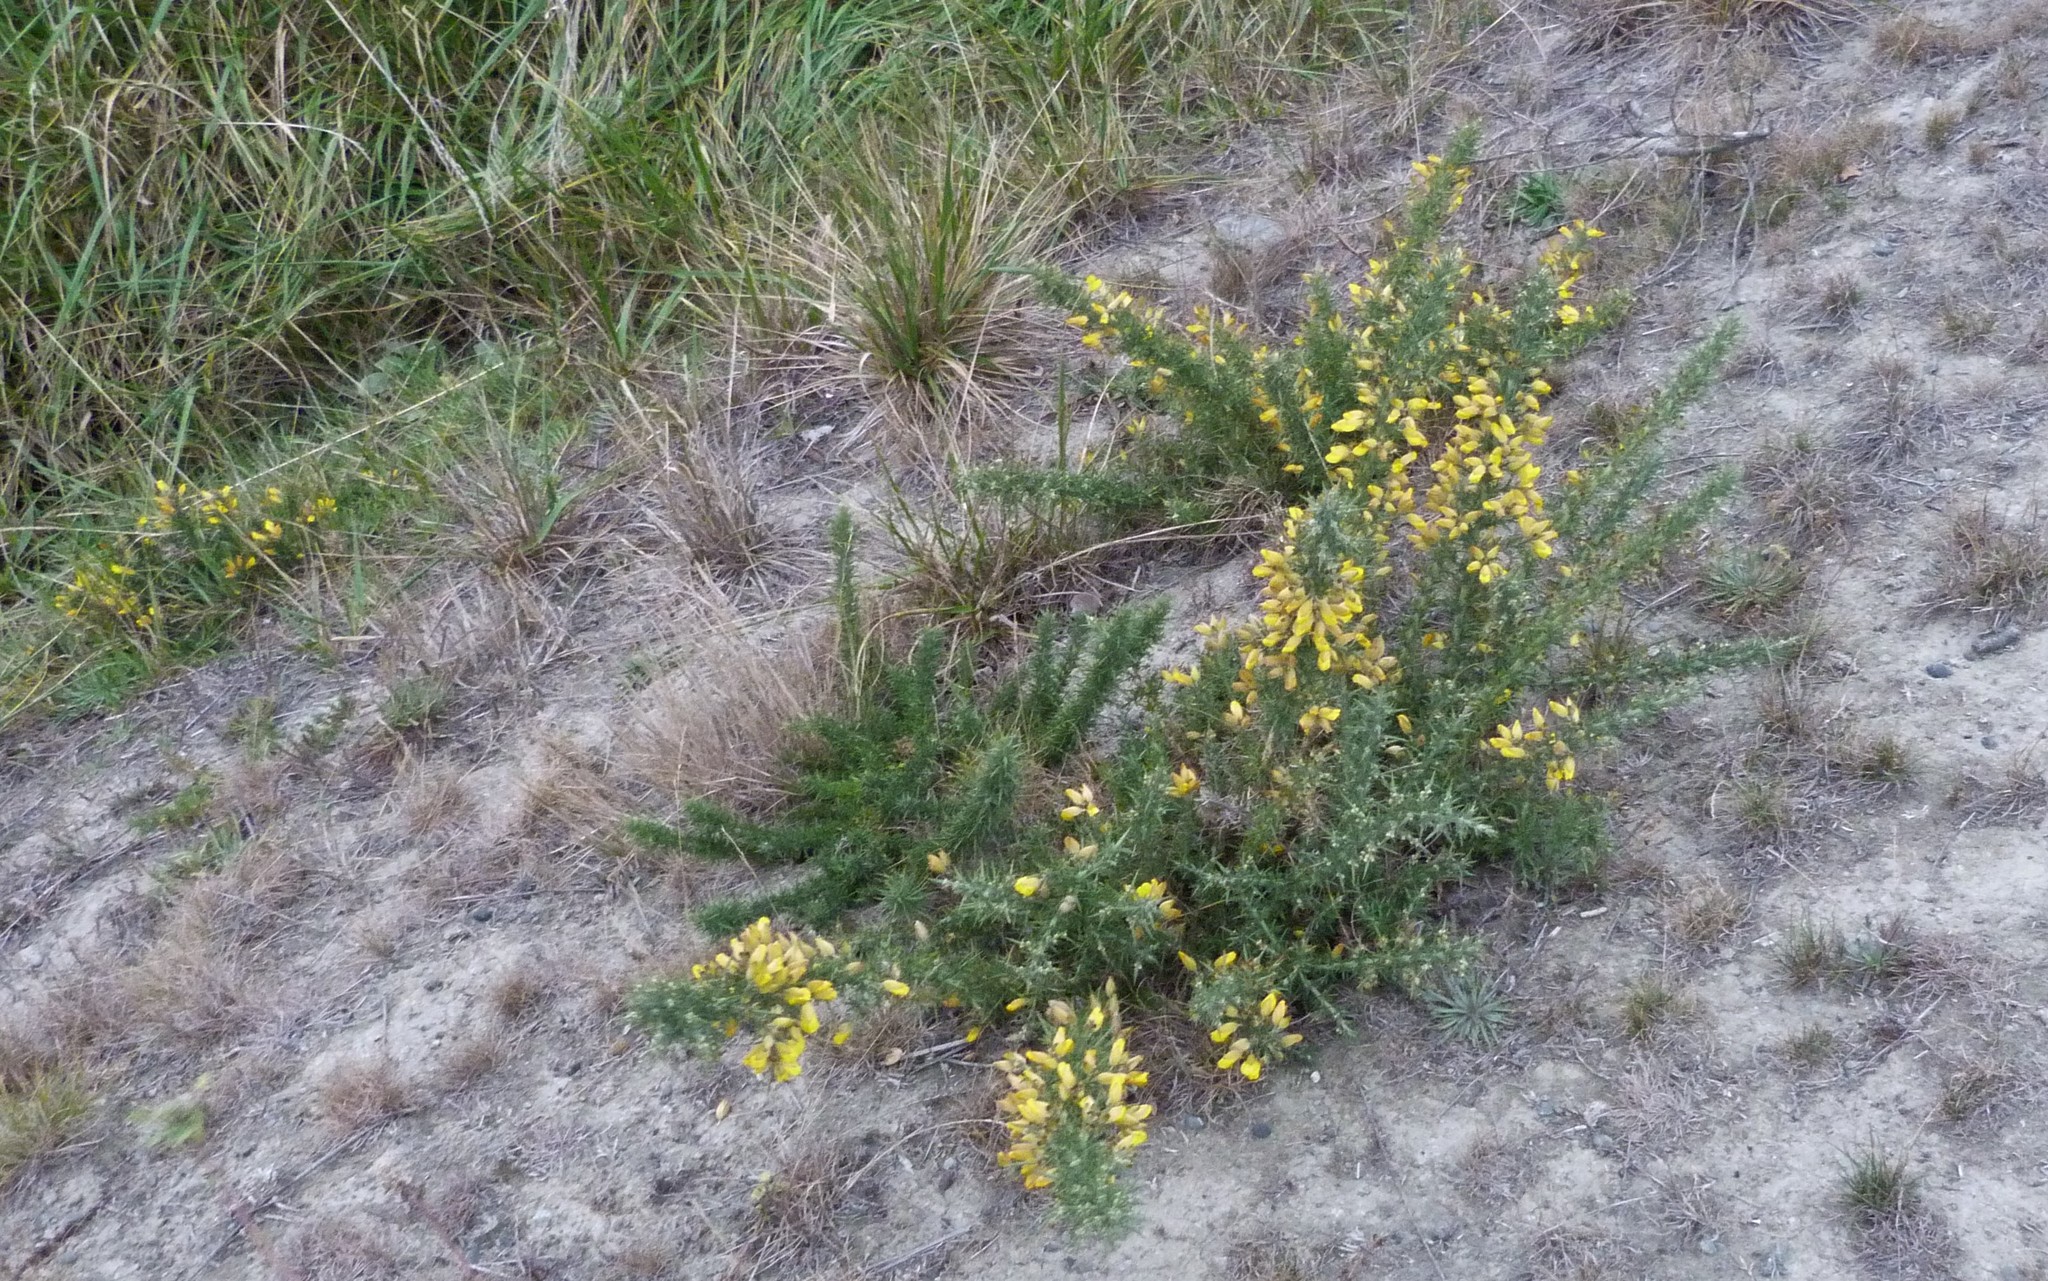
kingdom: Plantae
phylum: Tracheophyta
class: Magnoliopsida
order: Fabales
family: Fabaceae
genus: Ulex
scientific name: Ulex europaeus
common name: Common gorse
